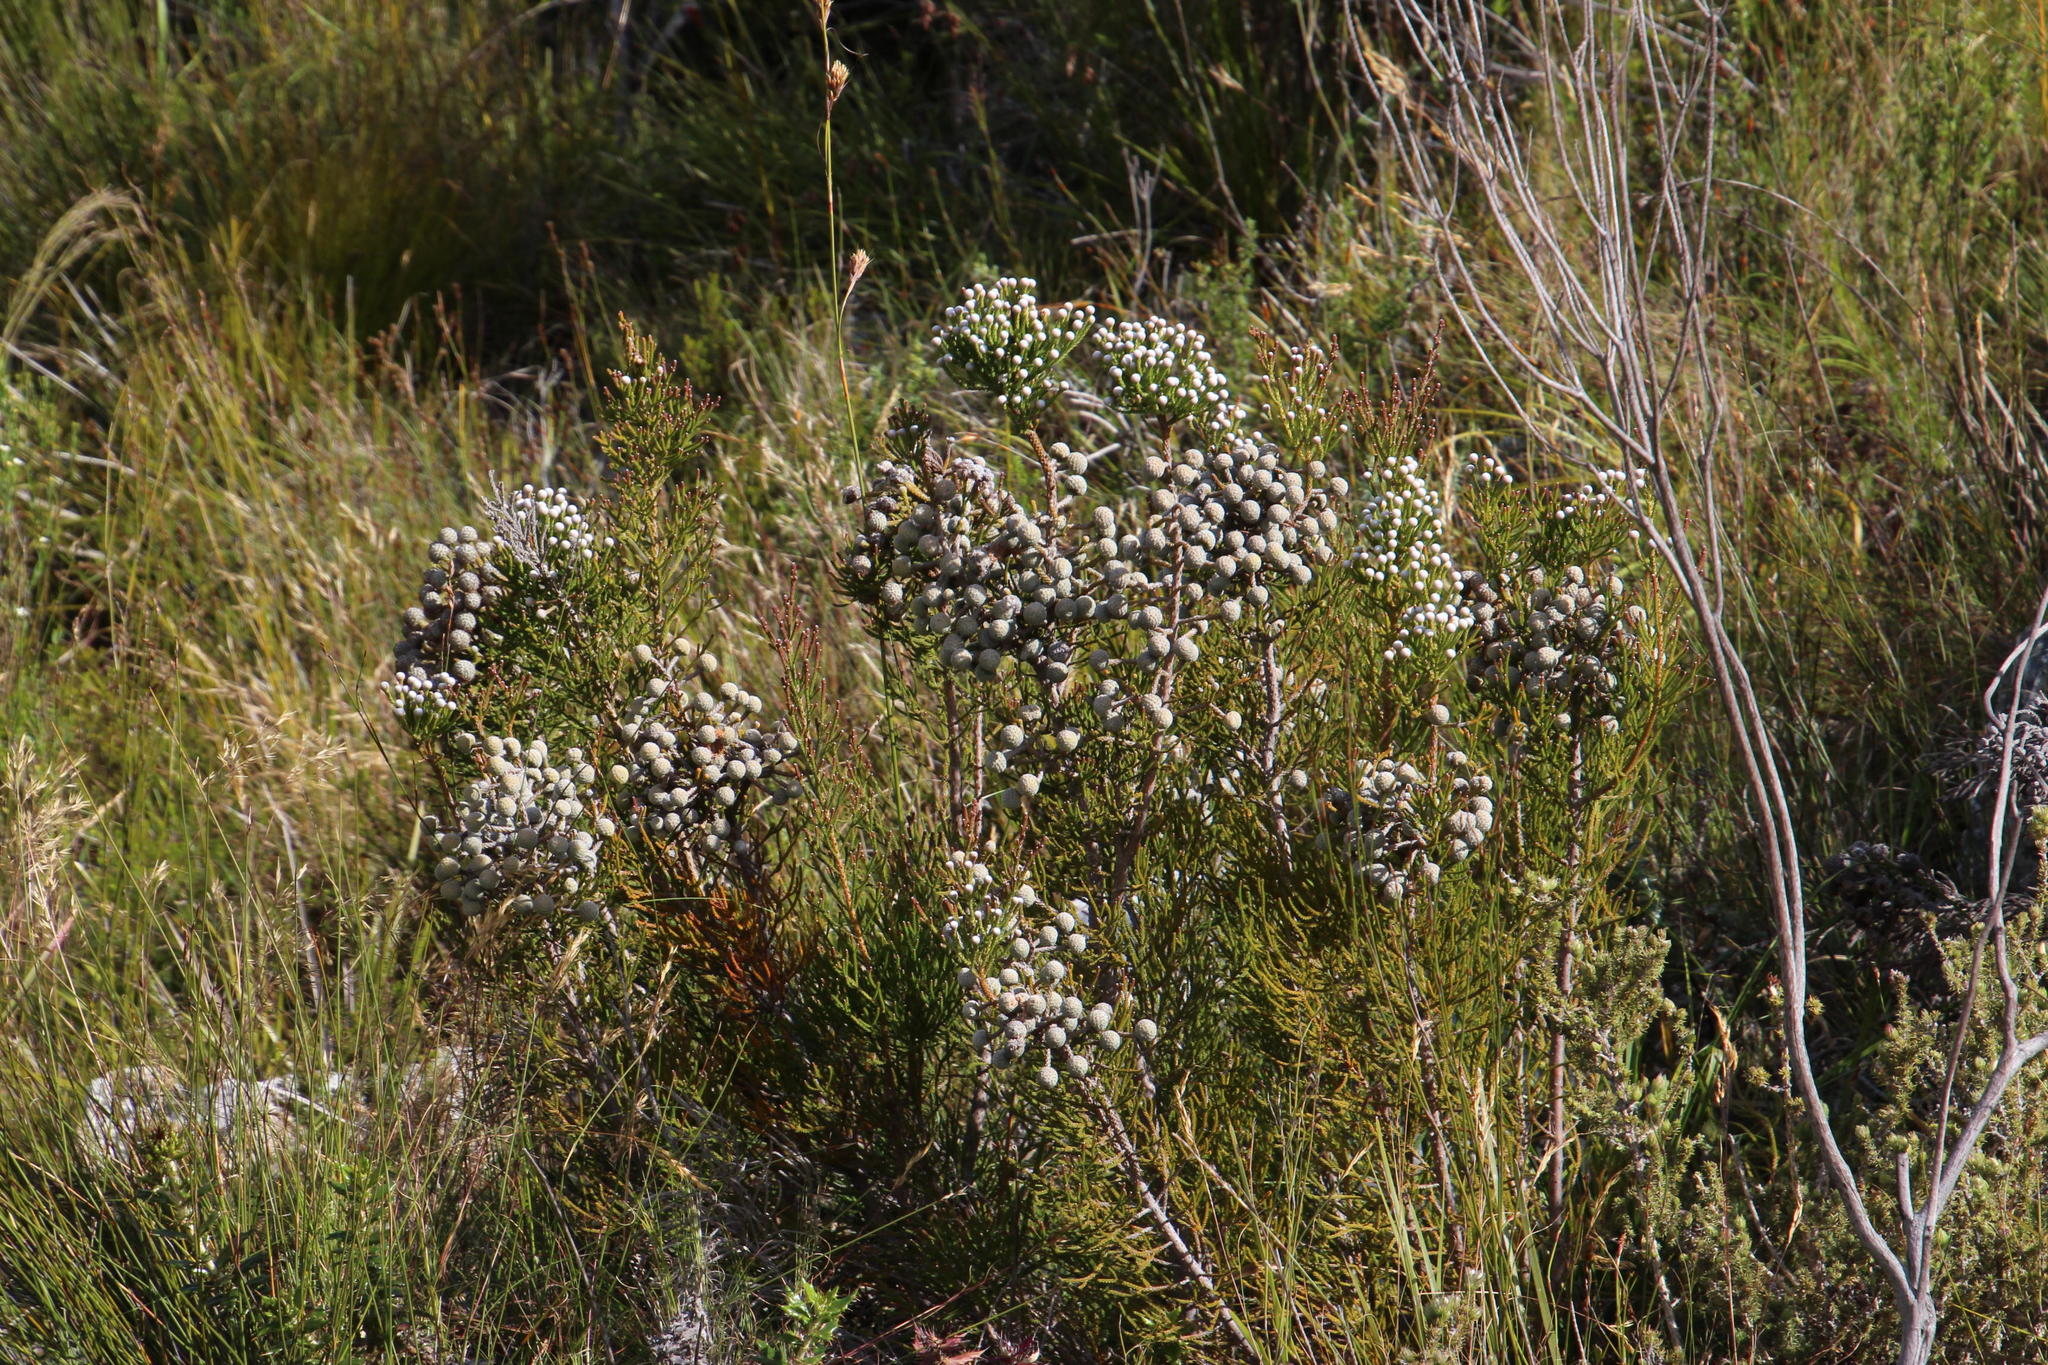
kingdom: Plantae
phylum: Tracheophyta
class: Magnoliopsida
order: Bruniales
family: Bruniaceae
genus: Brunia
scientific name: Brunia noduliflora
